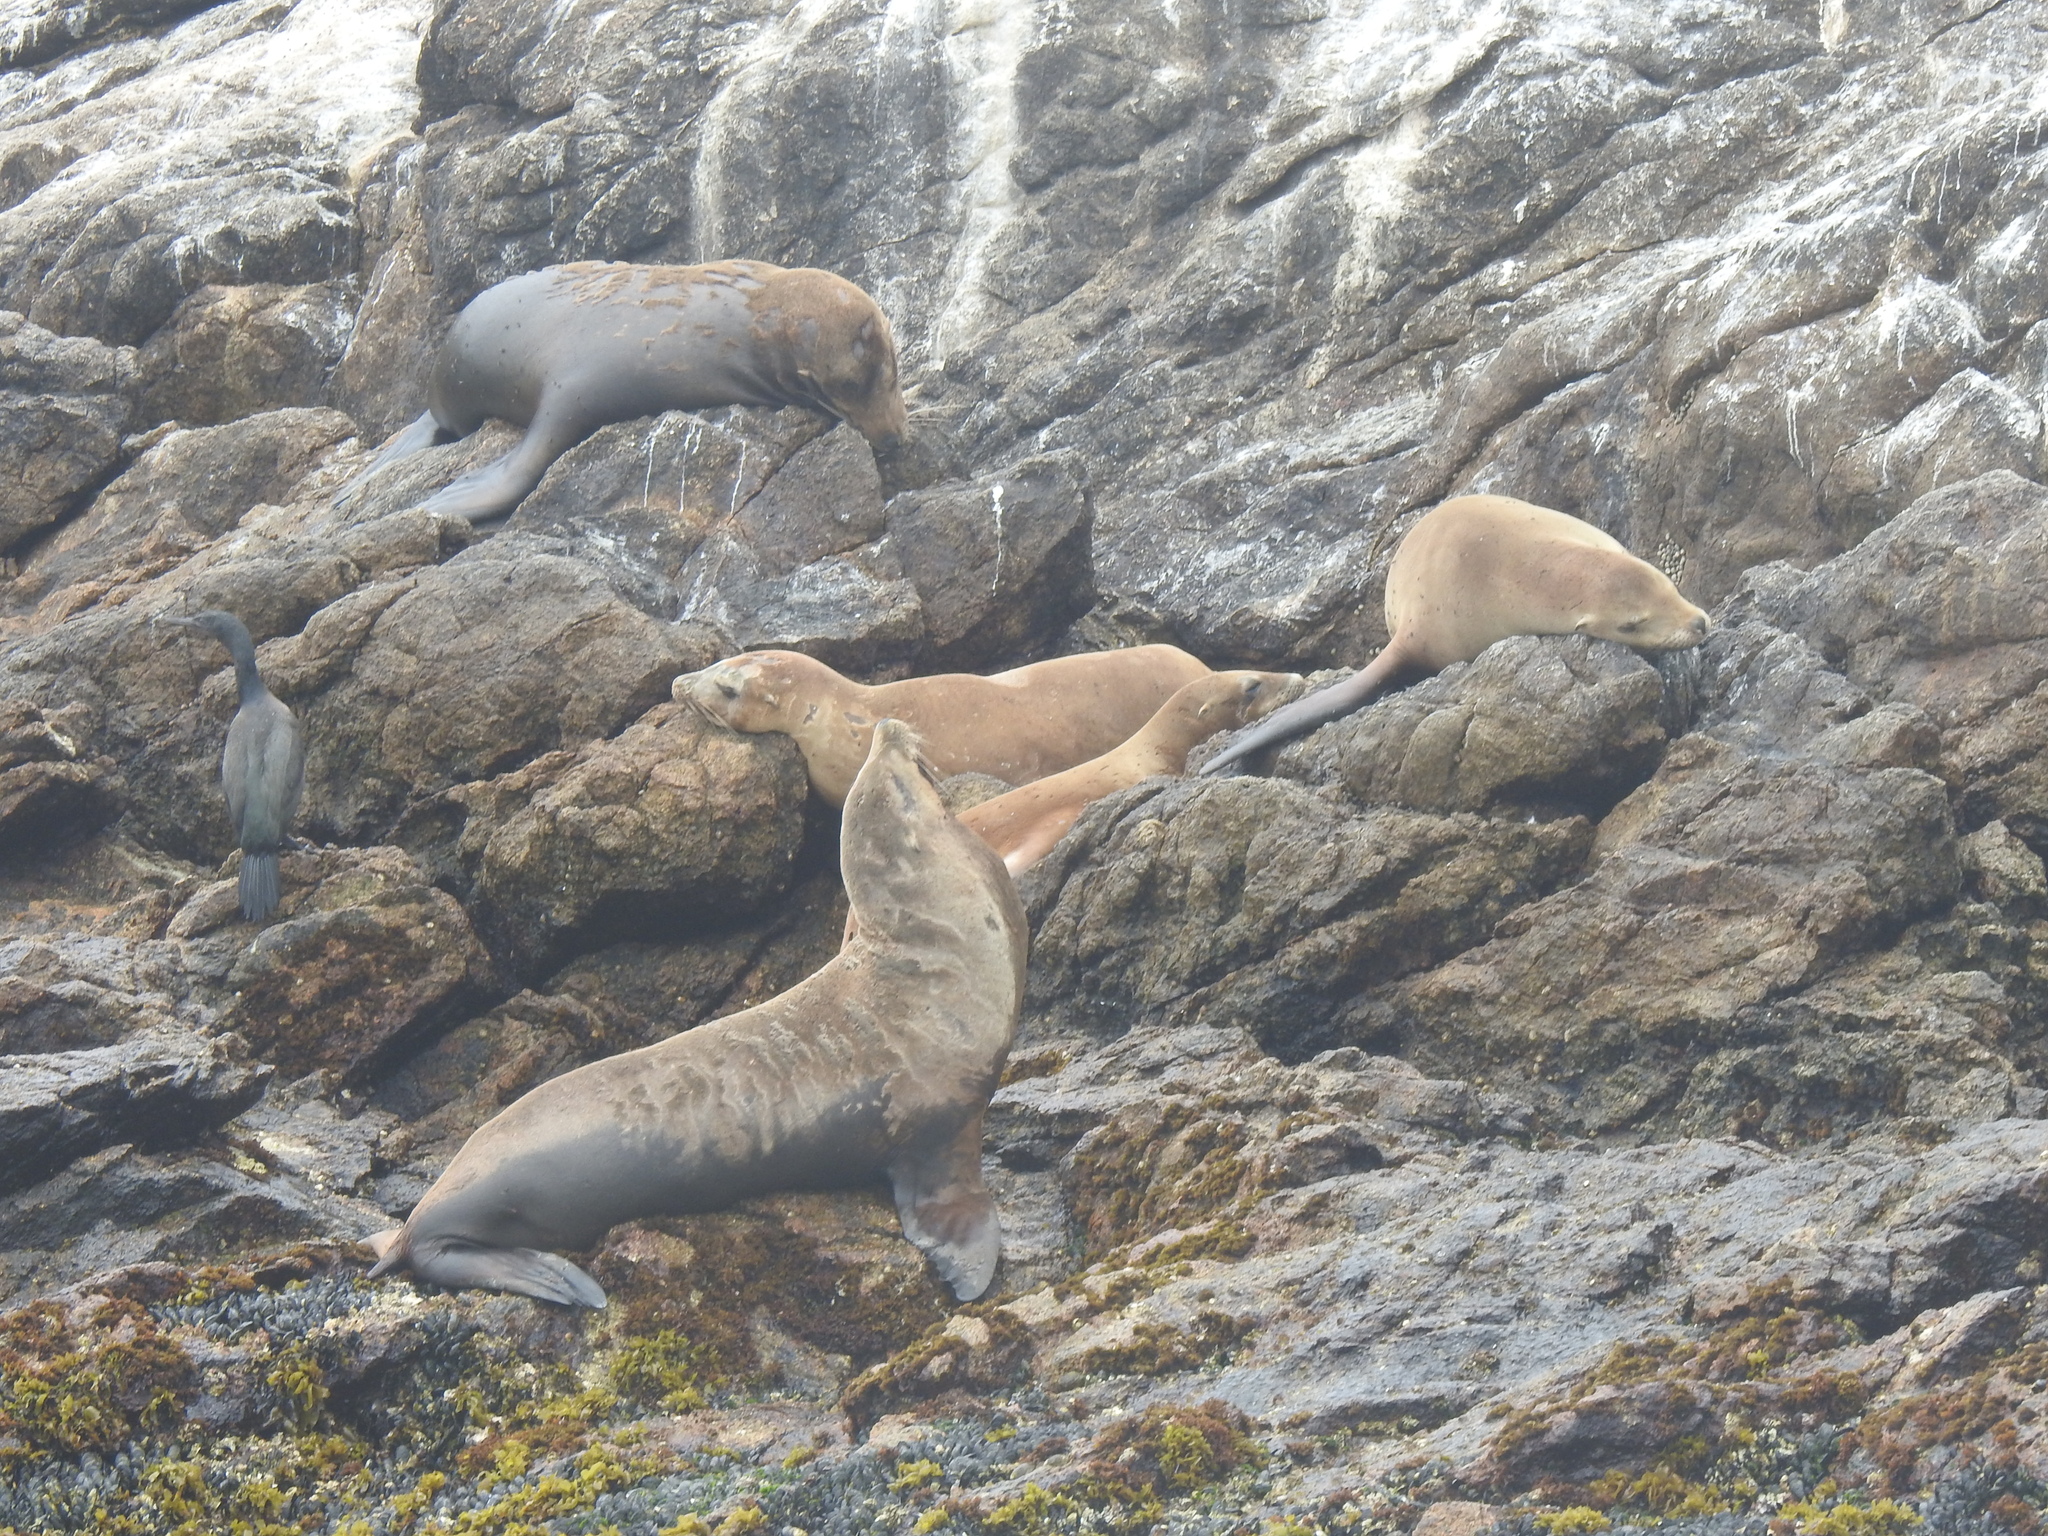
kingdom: Animalia
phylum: Chordata
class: Mammalia
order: Carnivora
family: Otariidae
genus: Zalophus
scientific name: Zalophus californianus
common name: California sea lion
